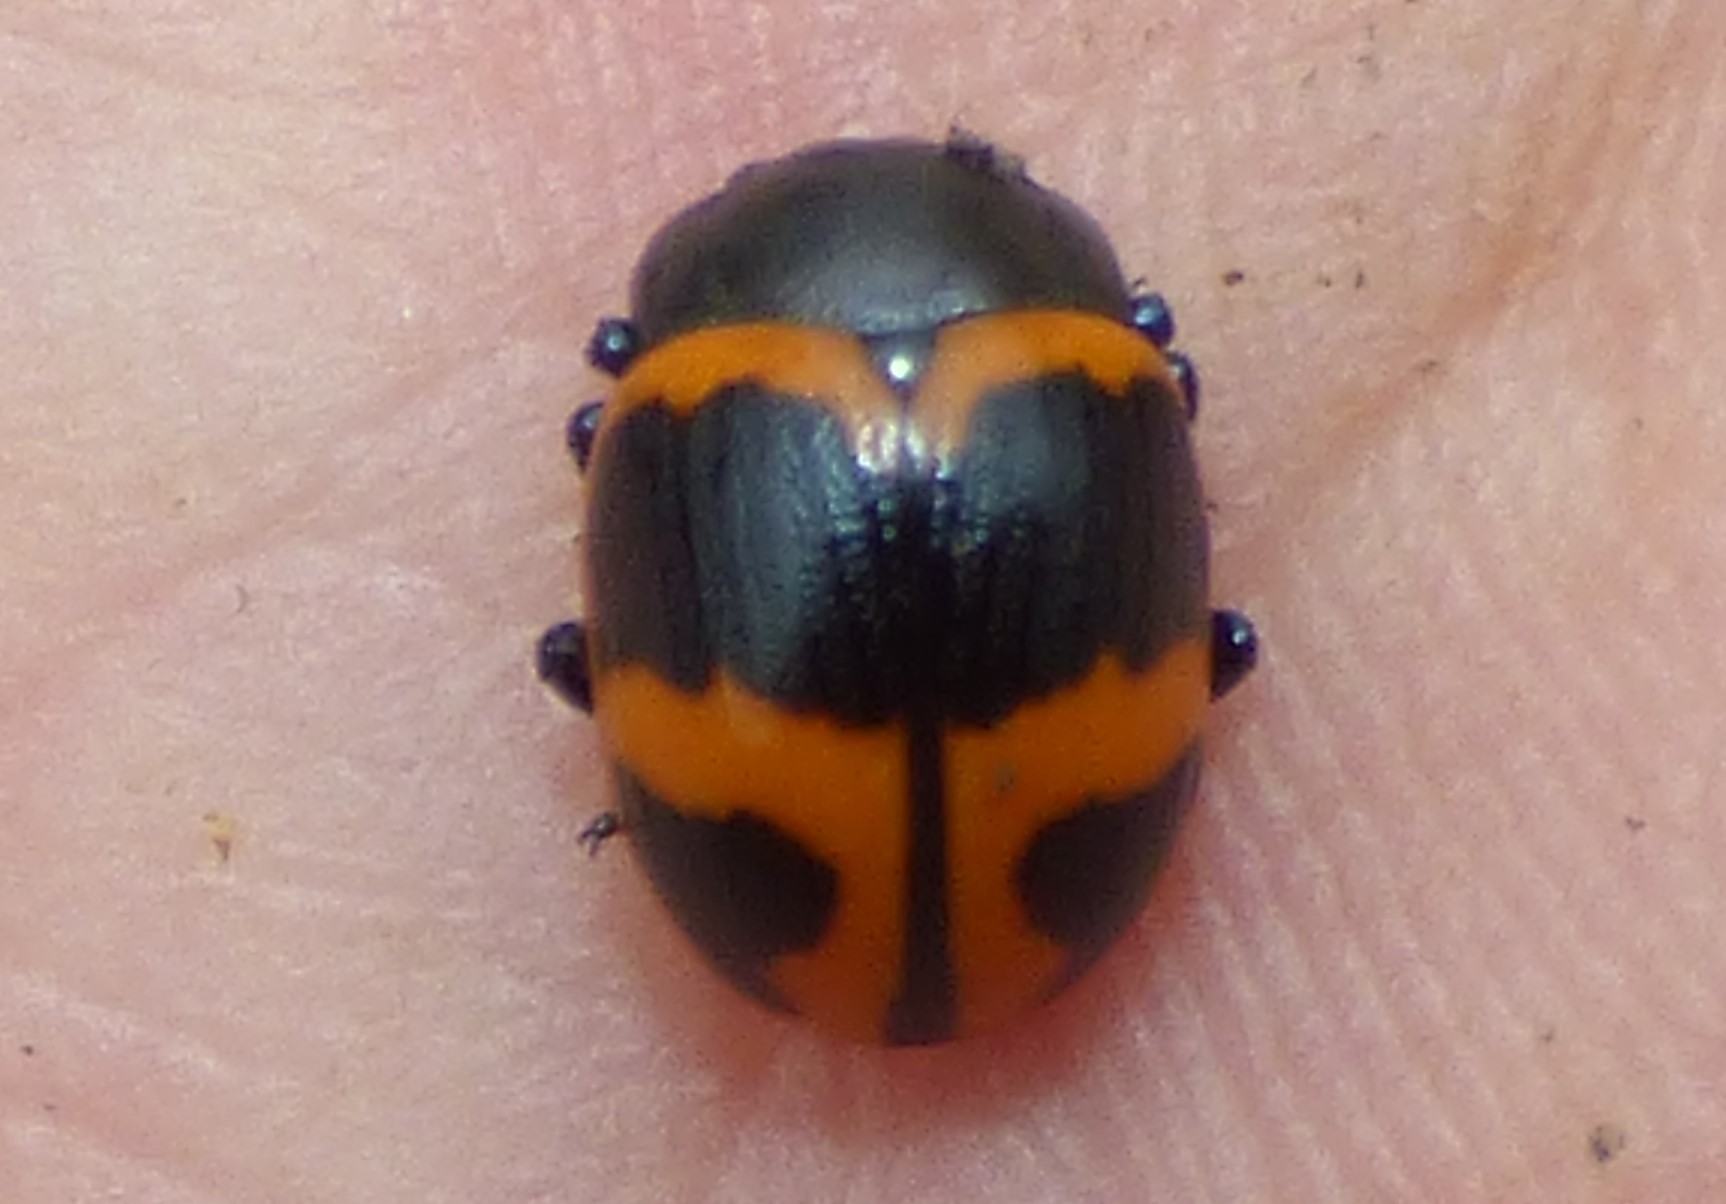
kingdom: Animalia
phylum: Arthropoda
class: Insecta
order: Coleoptera
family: Chrysomelidae
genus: Labidomera
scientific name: Labidomera clivicollis
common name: Swamp milkweed leaf beetle
